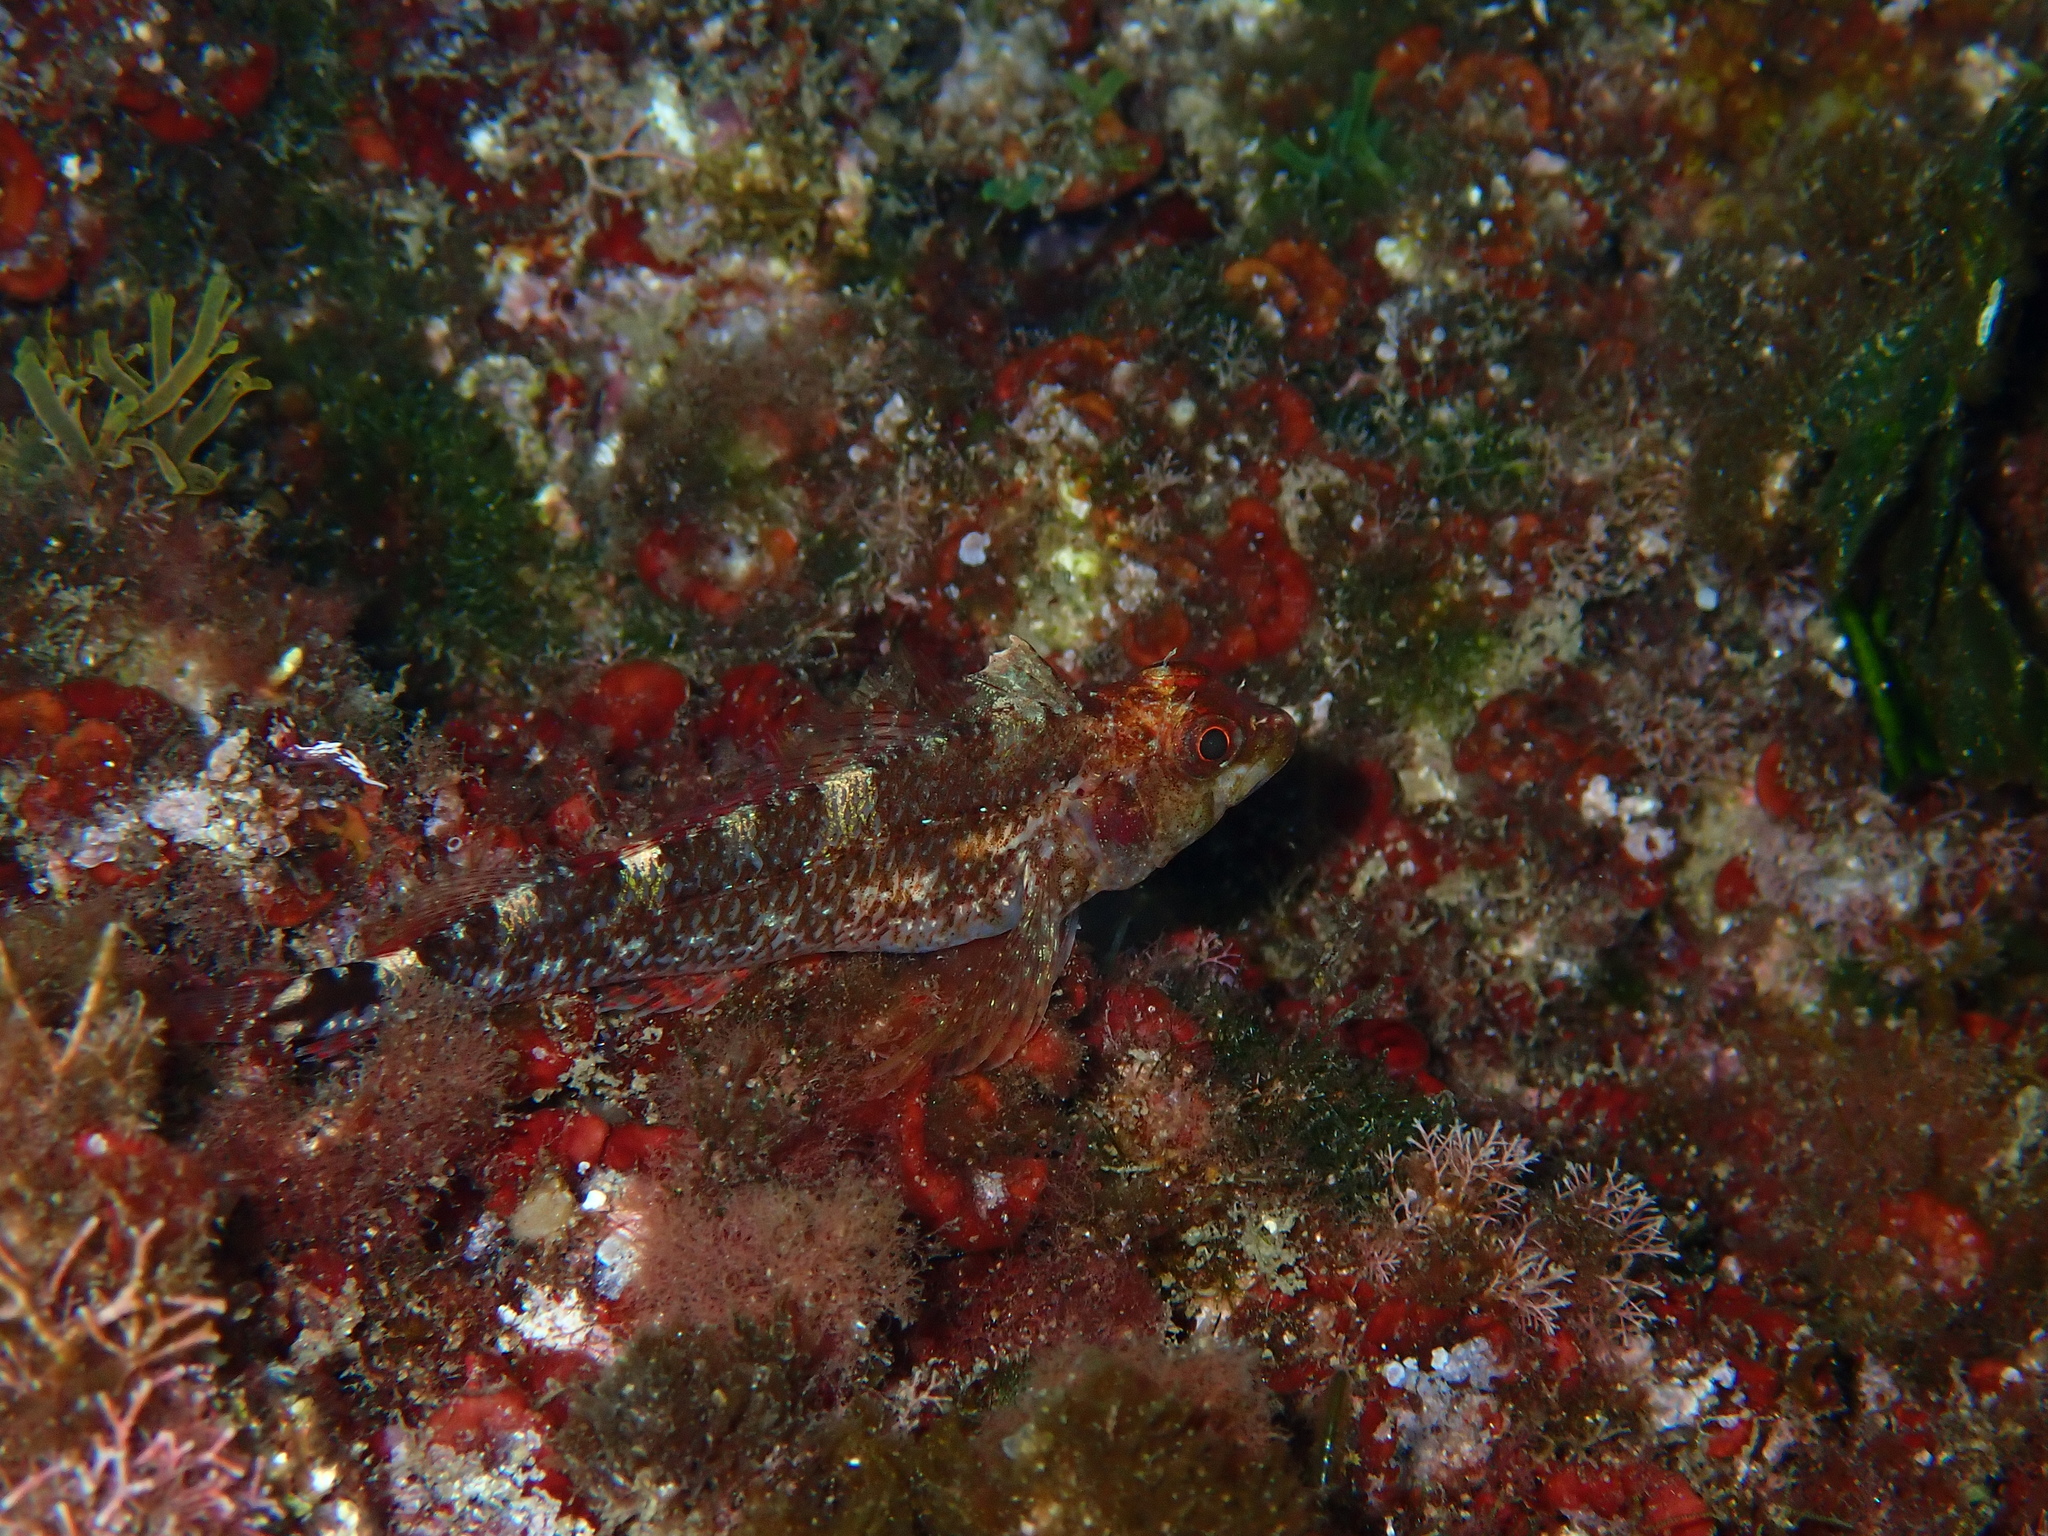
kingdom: Animalia
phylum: Chordata
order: Perciformes
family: Tripterygiidae
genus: Tripterygion
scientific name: Tripterygion delaisi
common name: Black-face blenny
